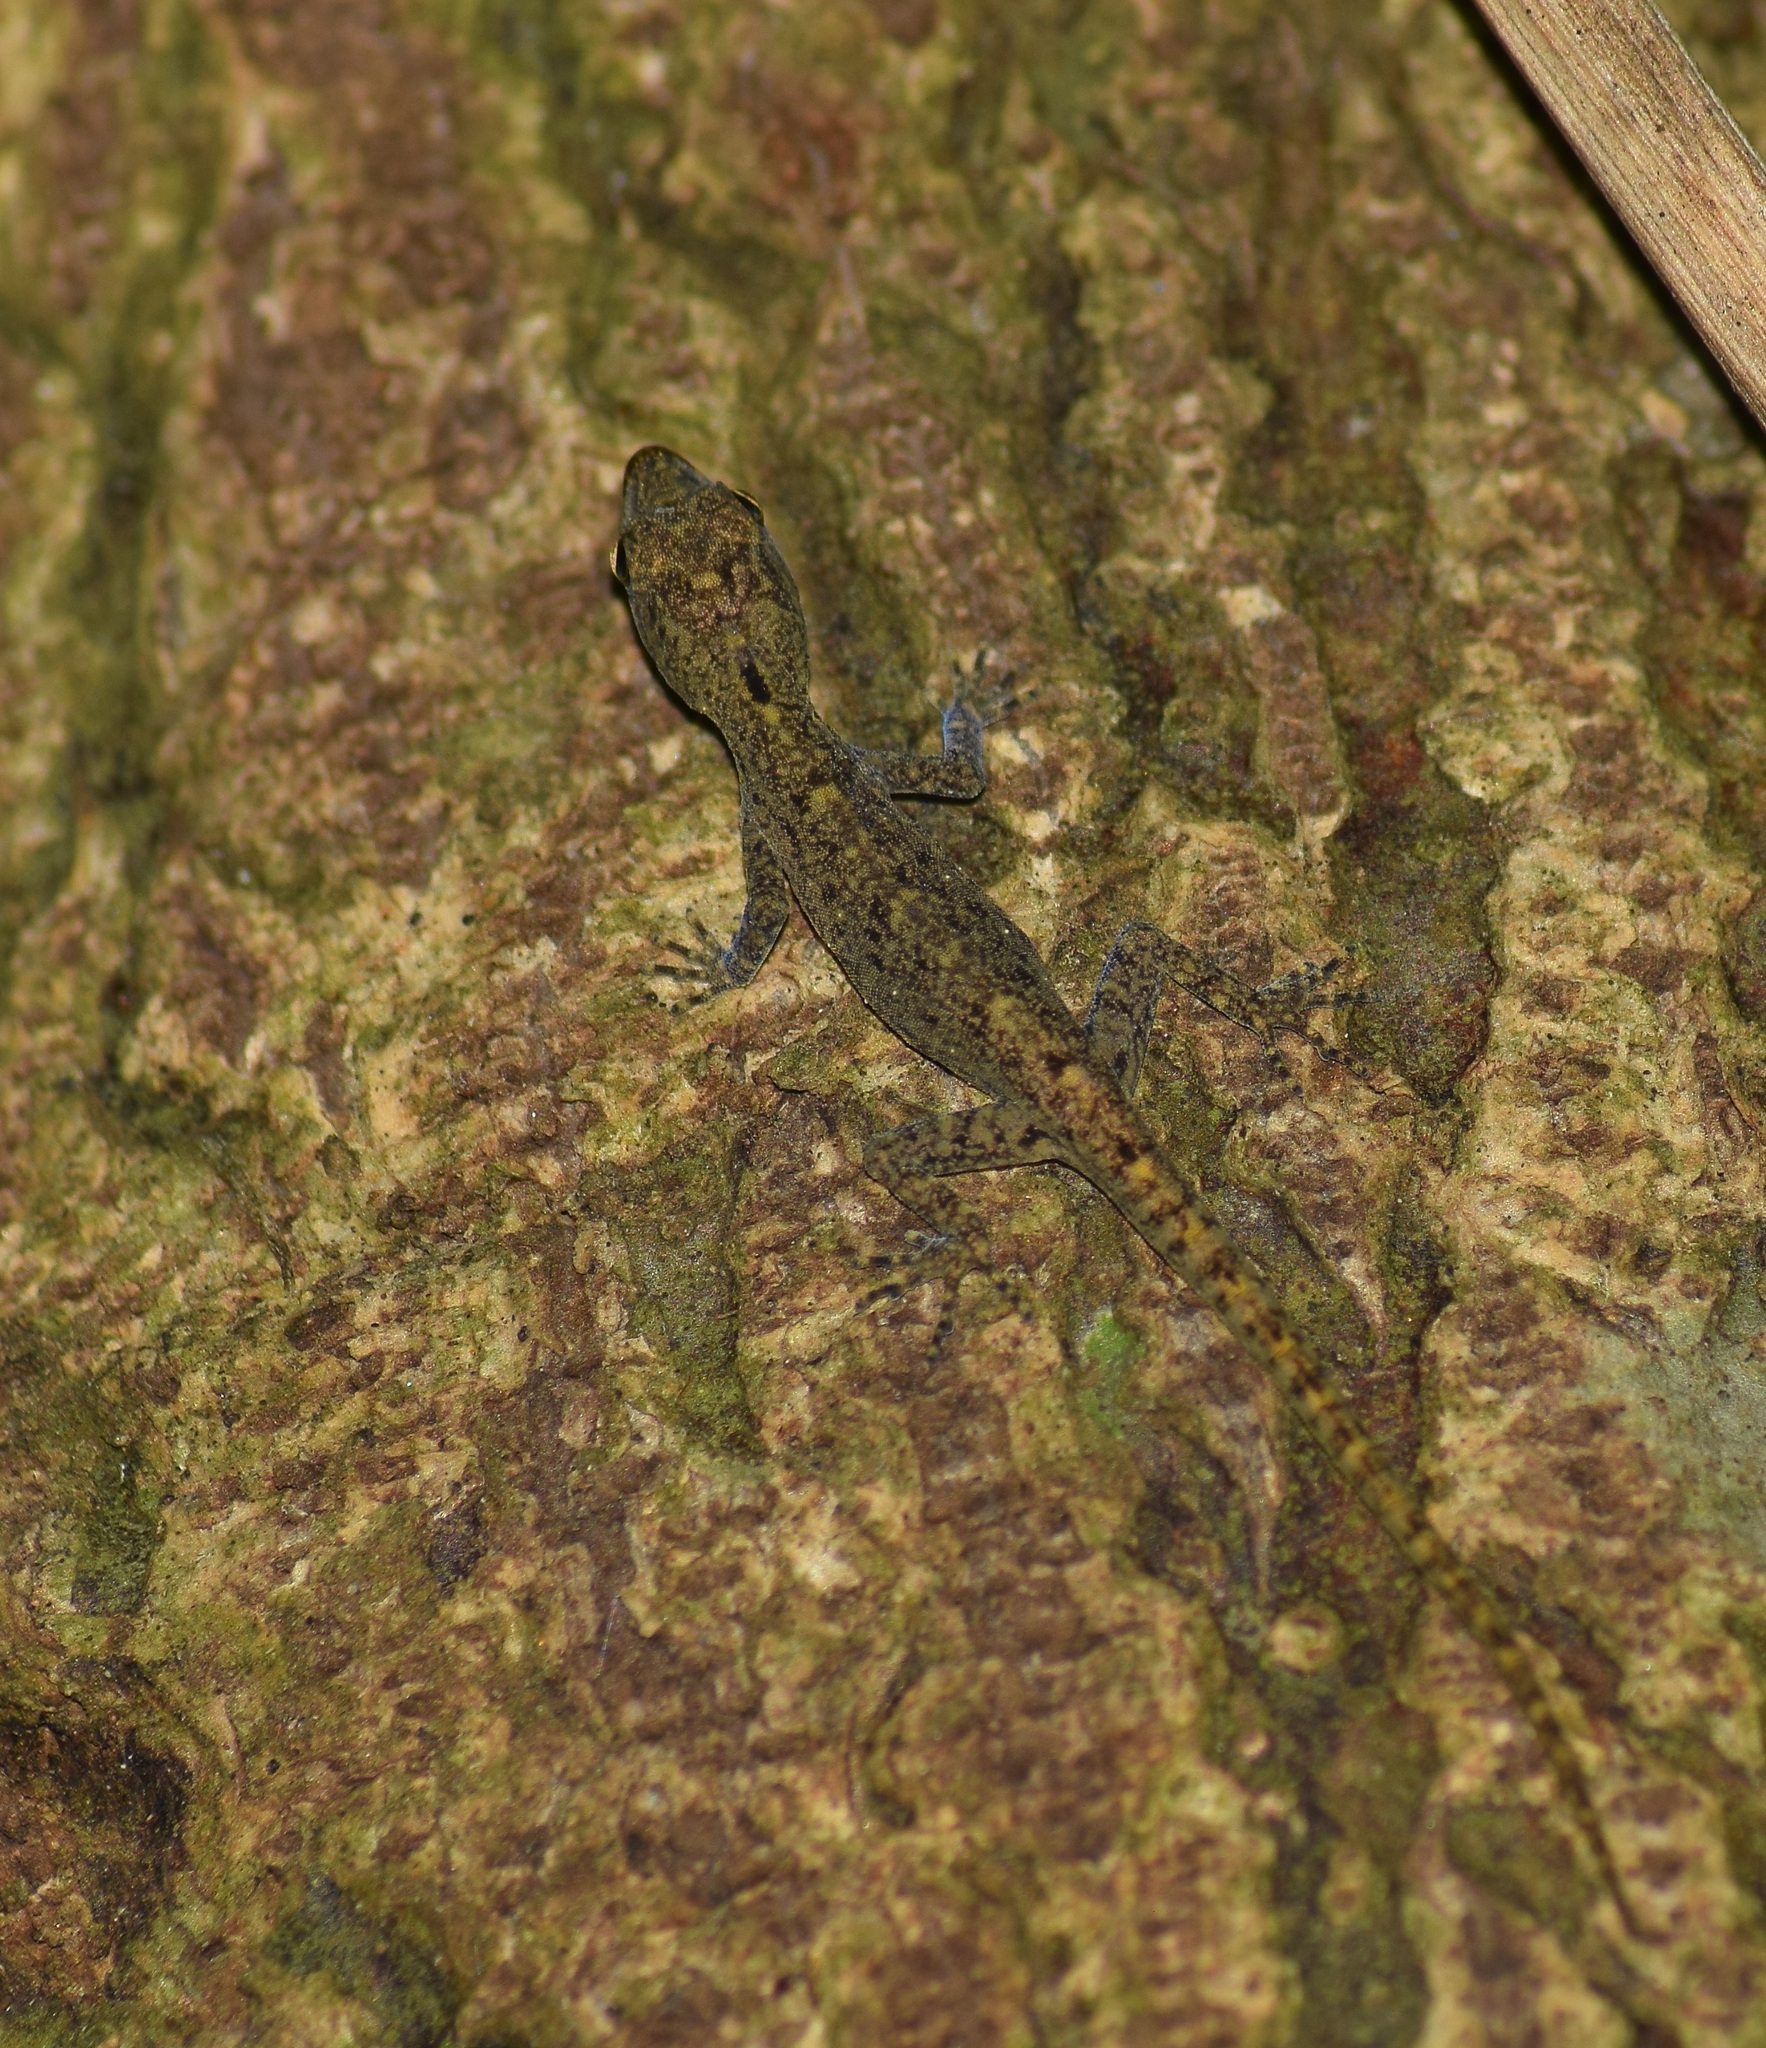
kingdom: Animalia
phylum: Chordata
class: Squamata
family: Gekkonidae
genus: Cnemaspis
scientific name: Cnemaspis littoralis
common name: Coastal day gecko
